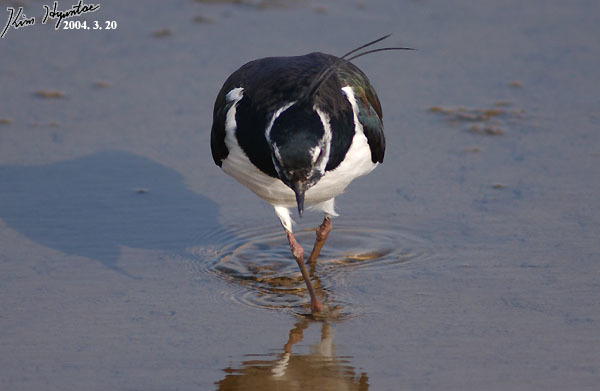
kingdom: Animalia
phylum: Chordata
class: Aves
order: Charadriiformes
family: Charadriidae
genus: Vanellus
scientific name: Vanellus vanellus
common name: Northern lapwing
